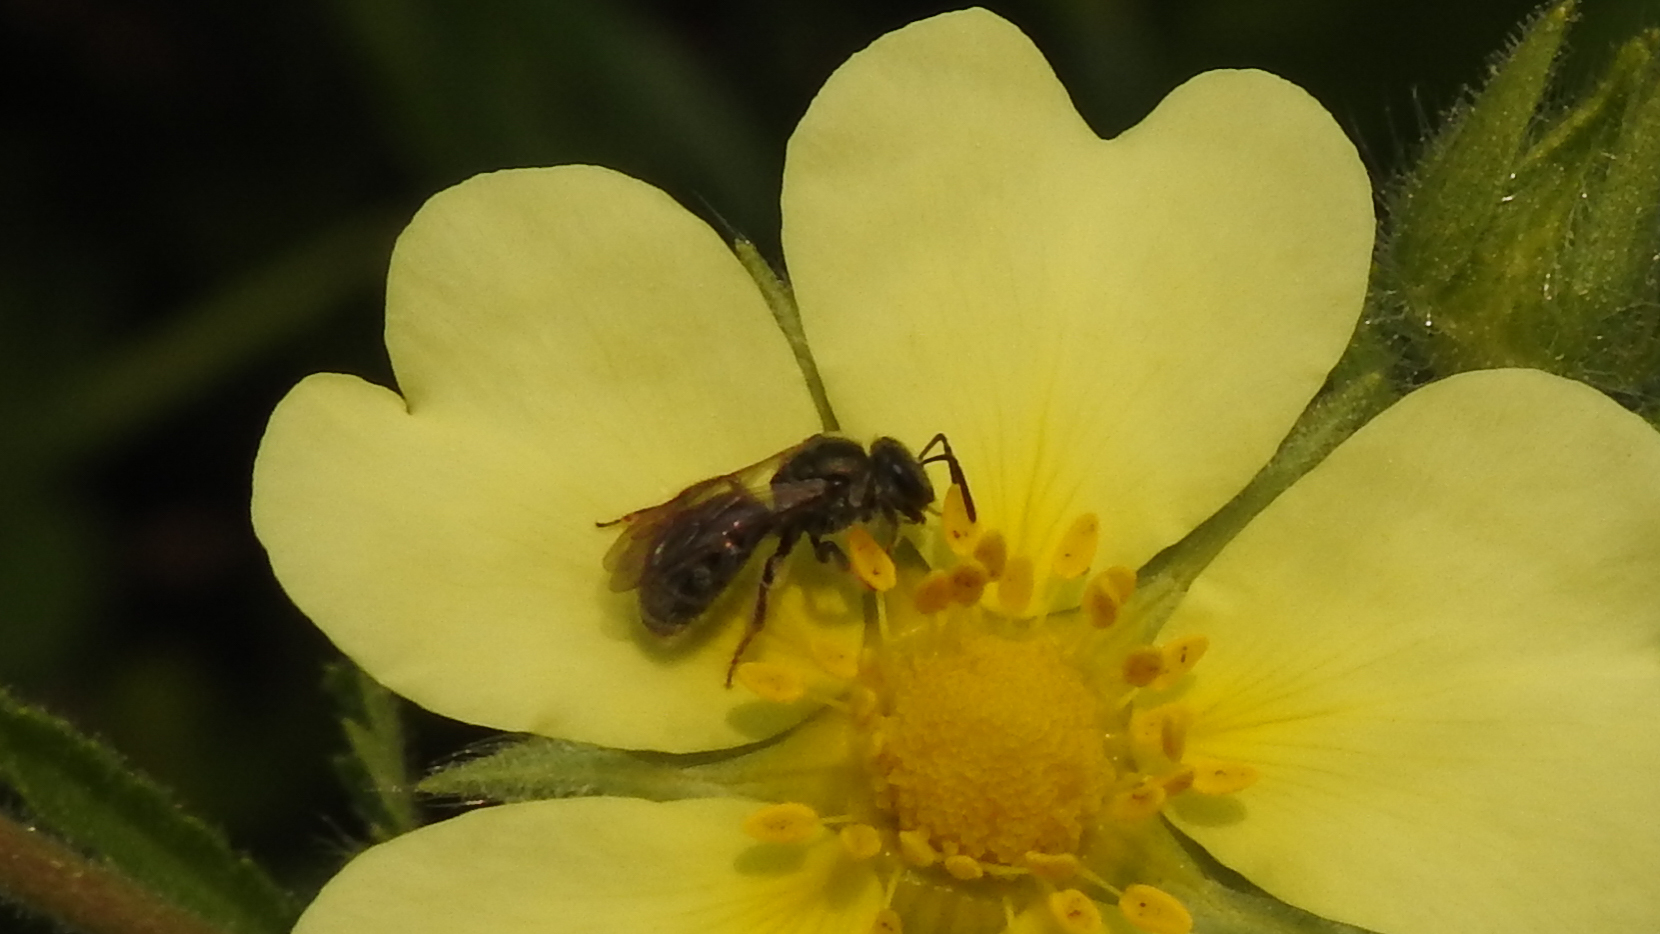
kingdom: Animalia
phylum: Arthropoda
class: Insecta
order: Hymenoptera
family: Halictidae
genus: Dialictus
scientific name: Dialictus
